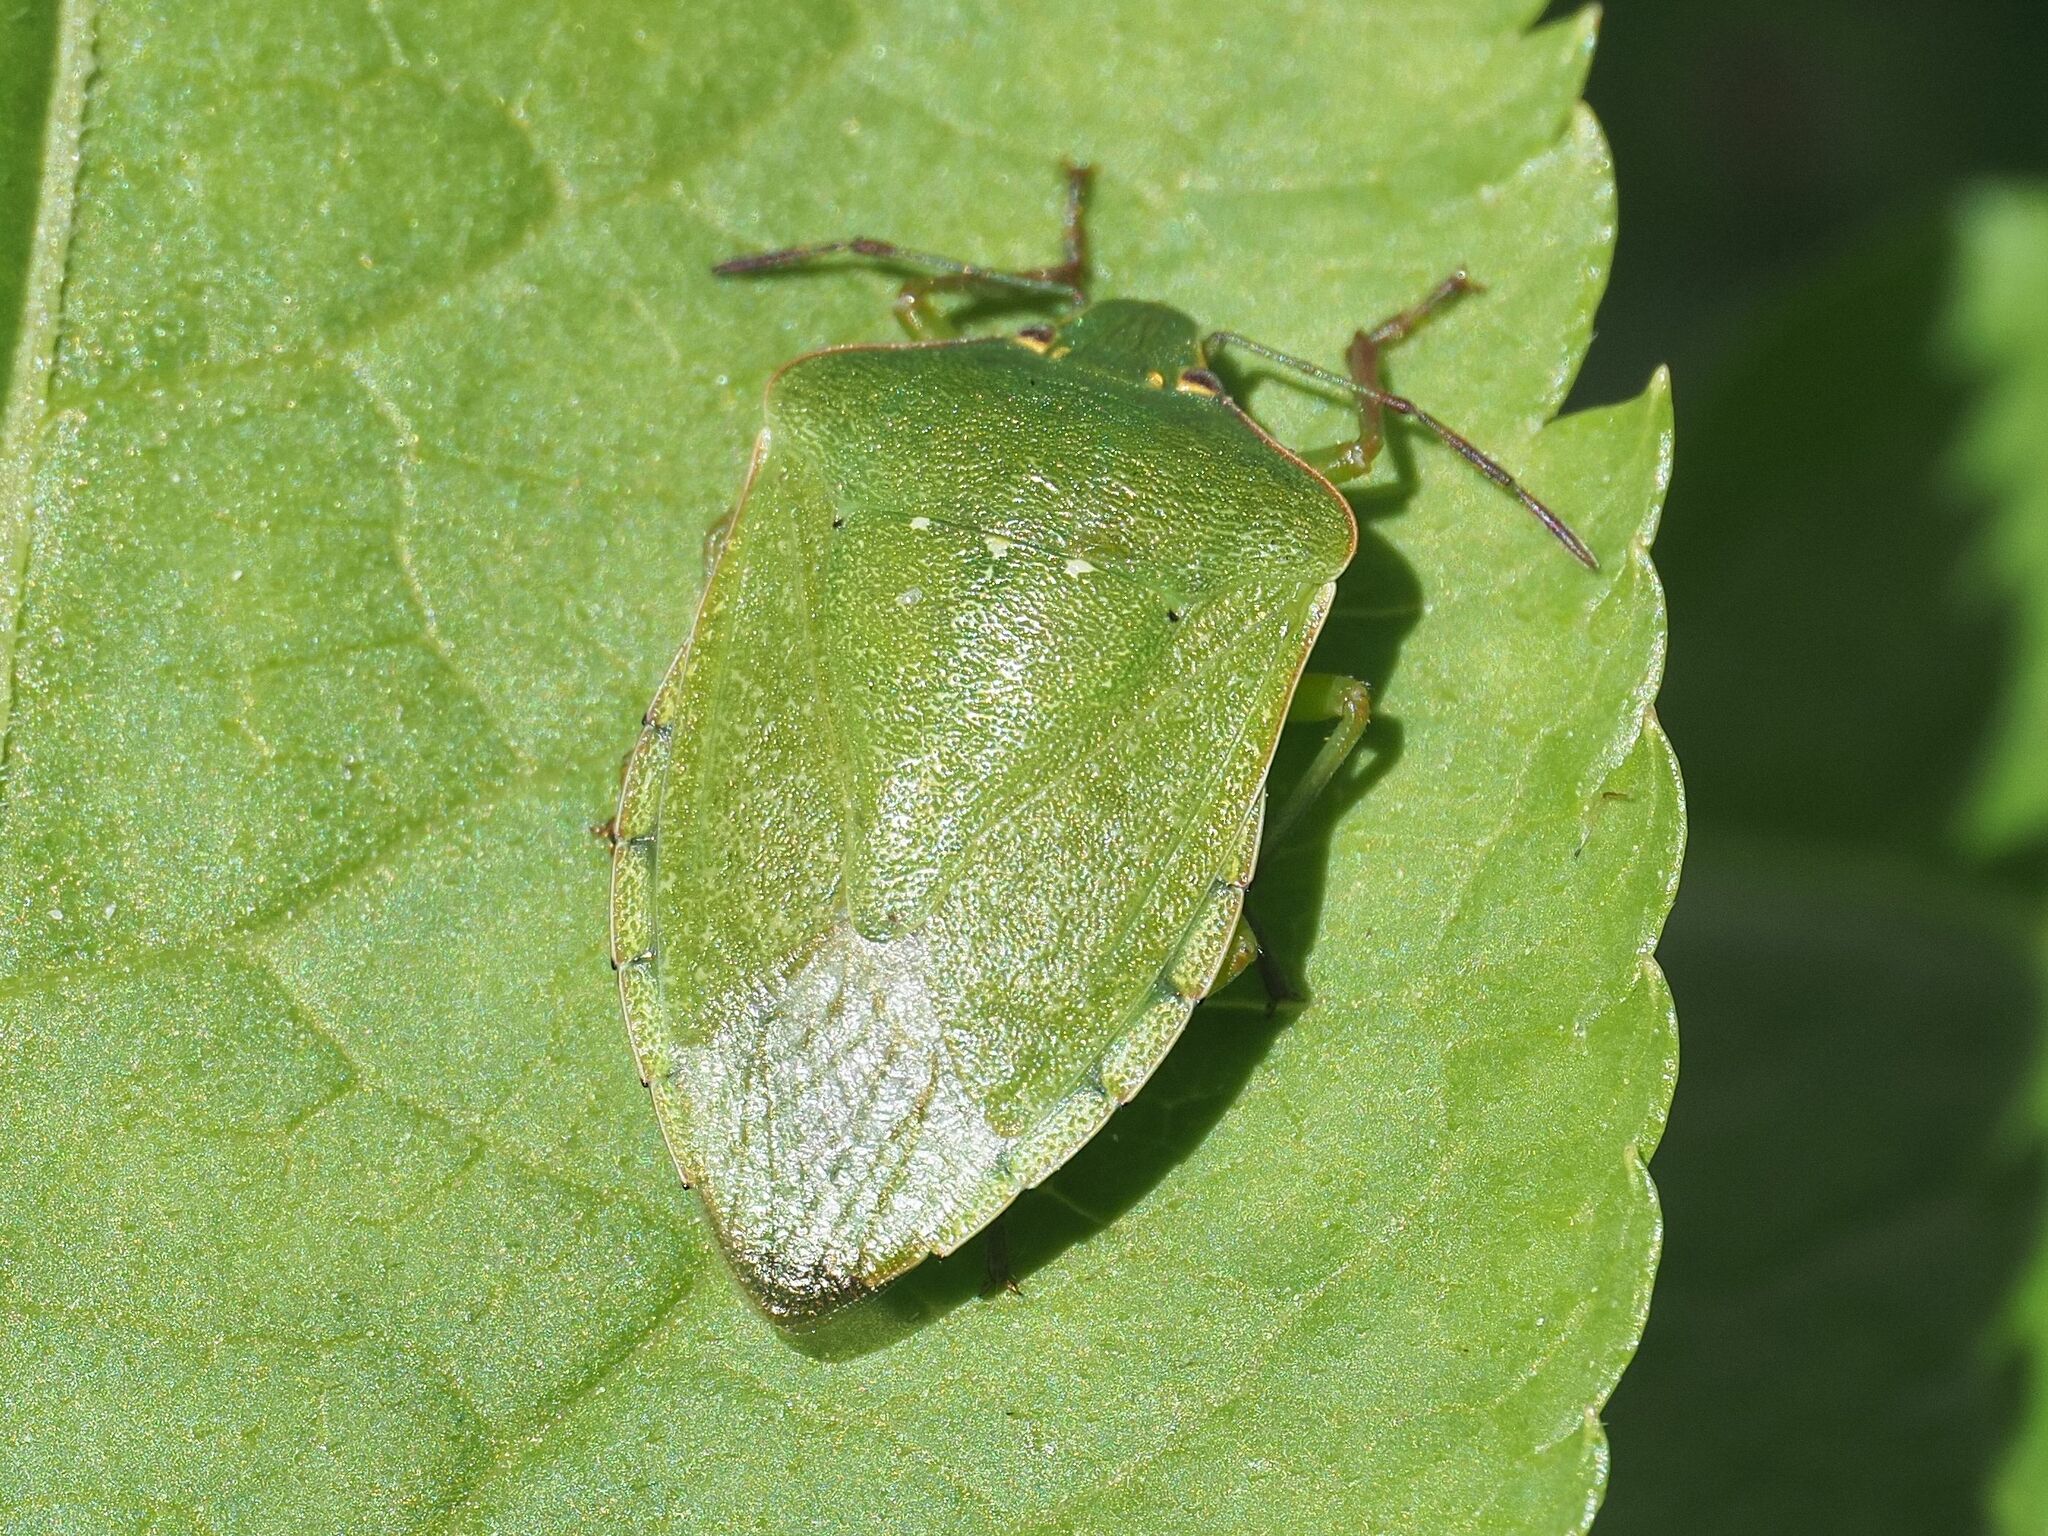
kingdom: Animalia
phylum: Arthropoda
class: Insecta
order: Hemiptera
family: Pentatomidae
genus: Nezara
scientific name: Nezara viridula
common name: Southern green stink bug
